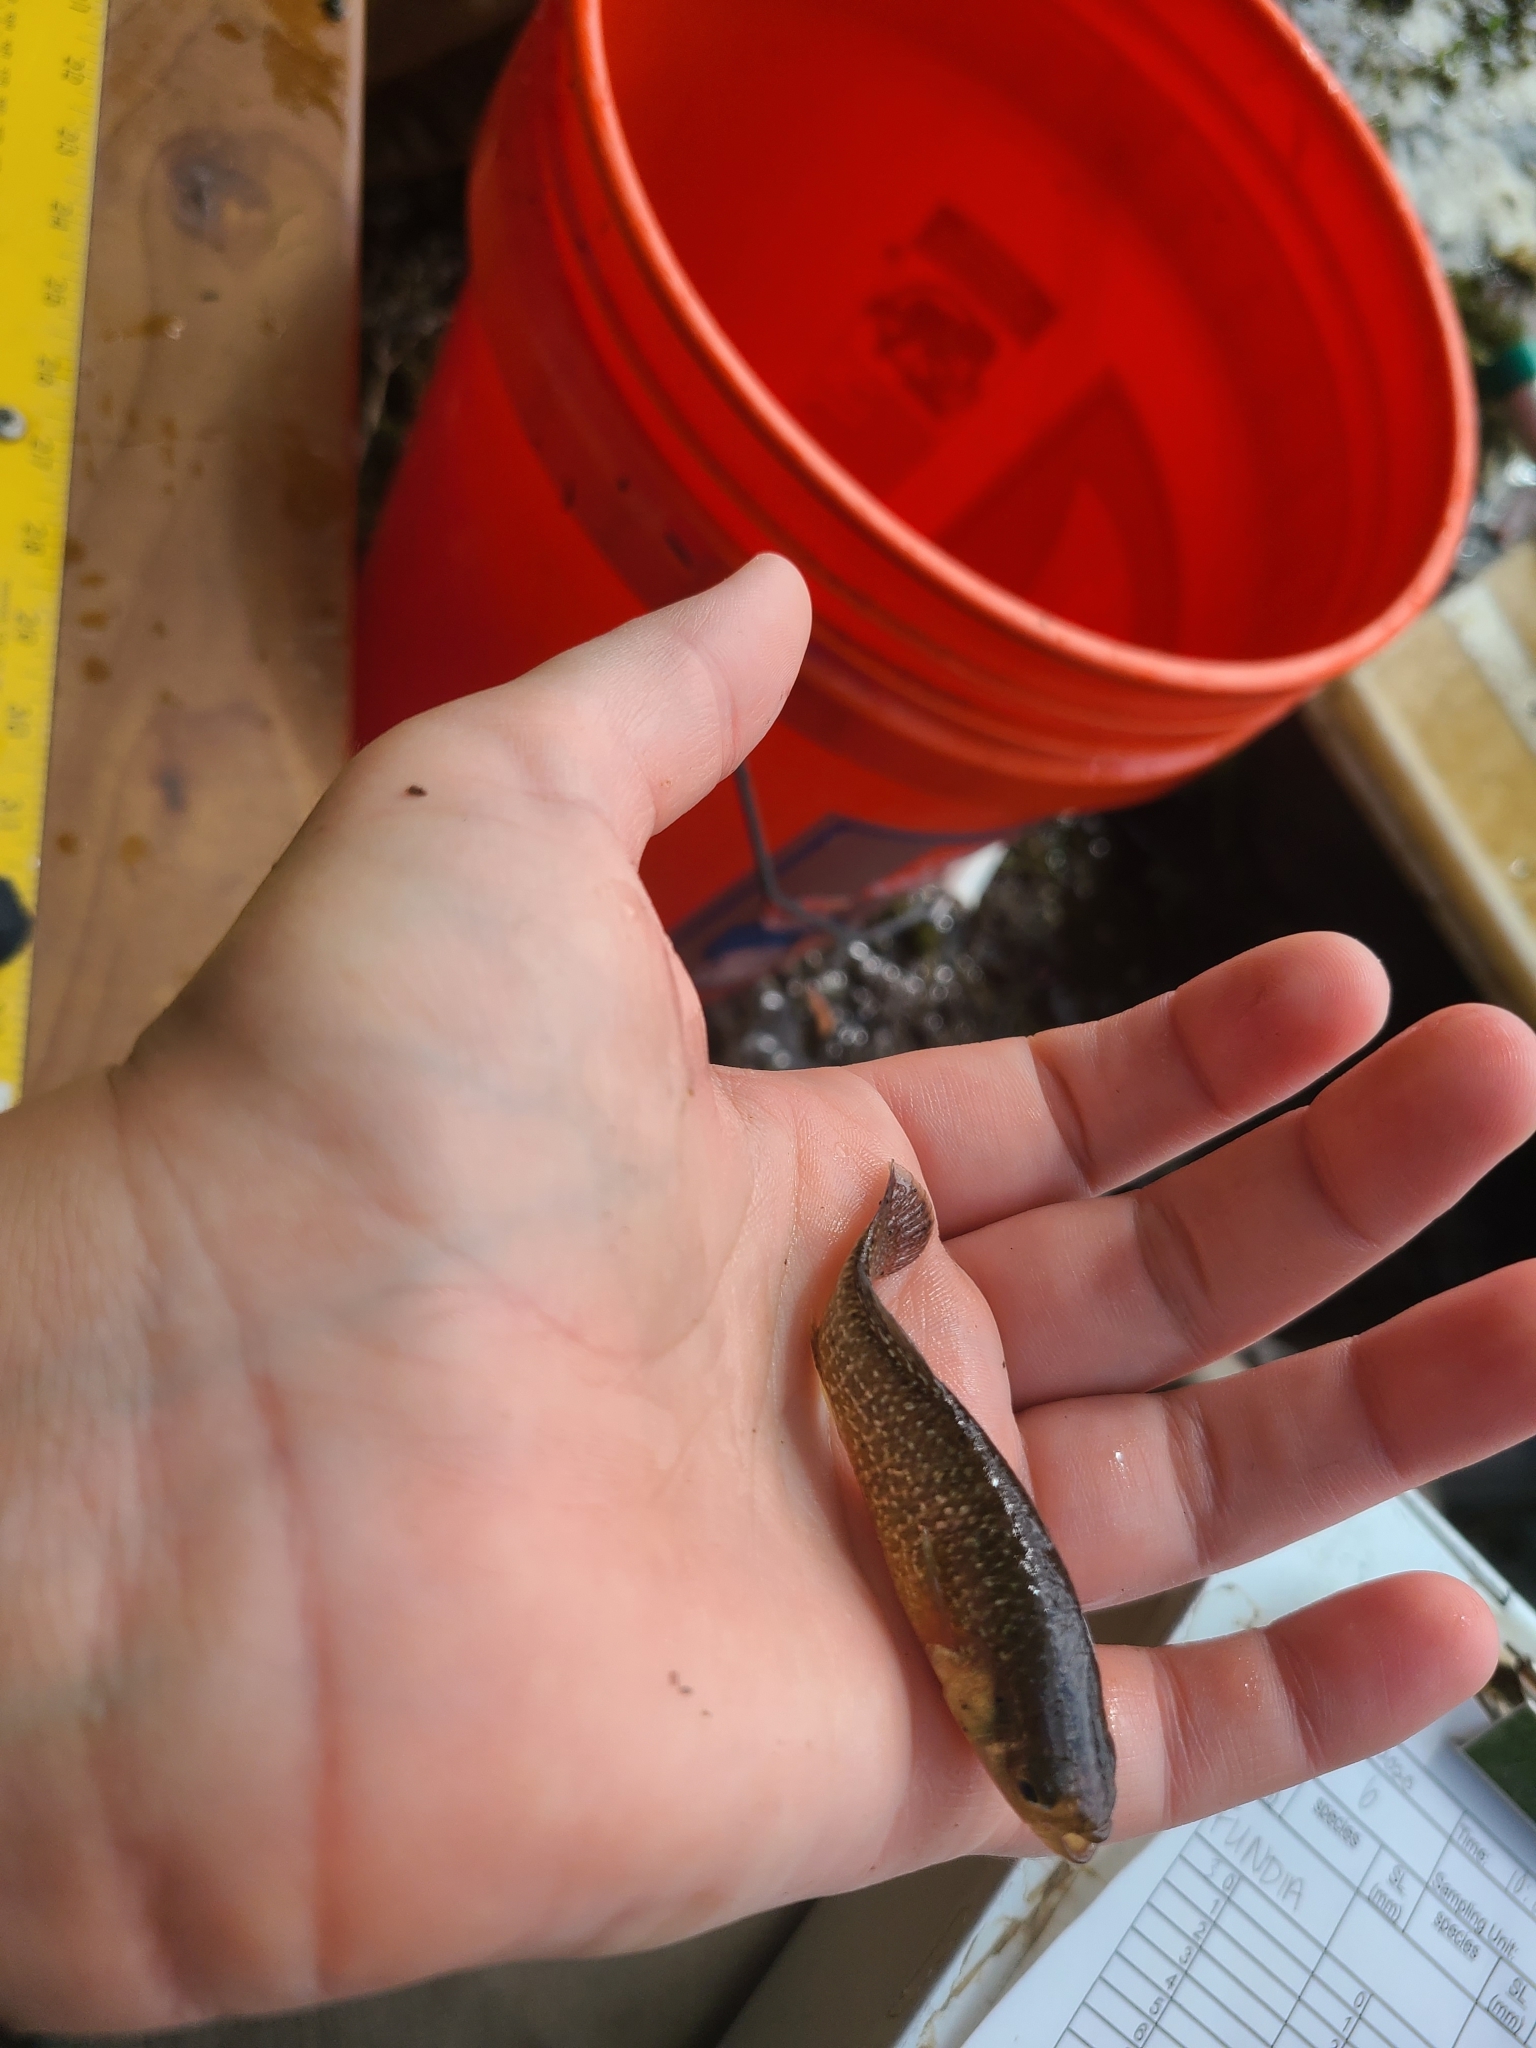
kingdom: Animalia
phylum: Chordata
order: Cyprinodontiformes
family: Fundulidae
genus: Fundulus
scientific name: Fundulus heteroclitus
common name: Mummichog
